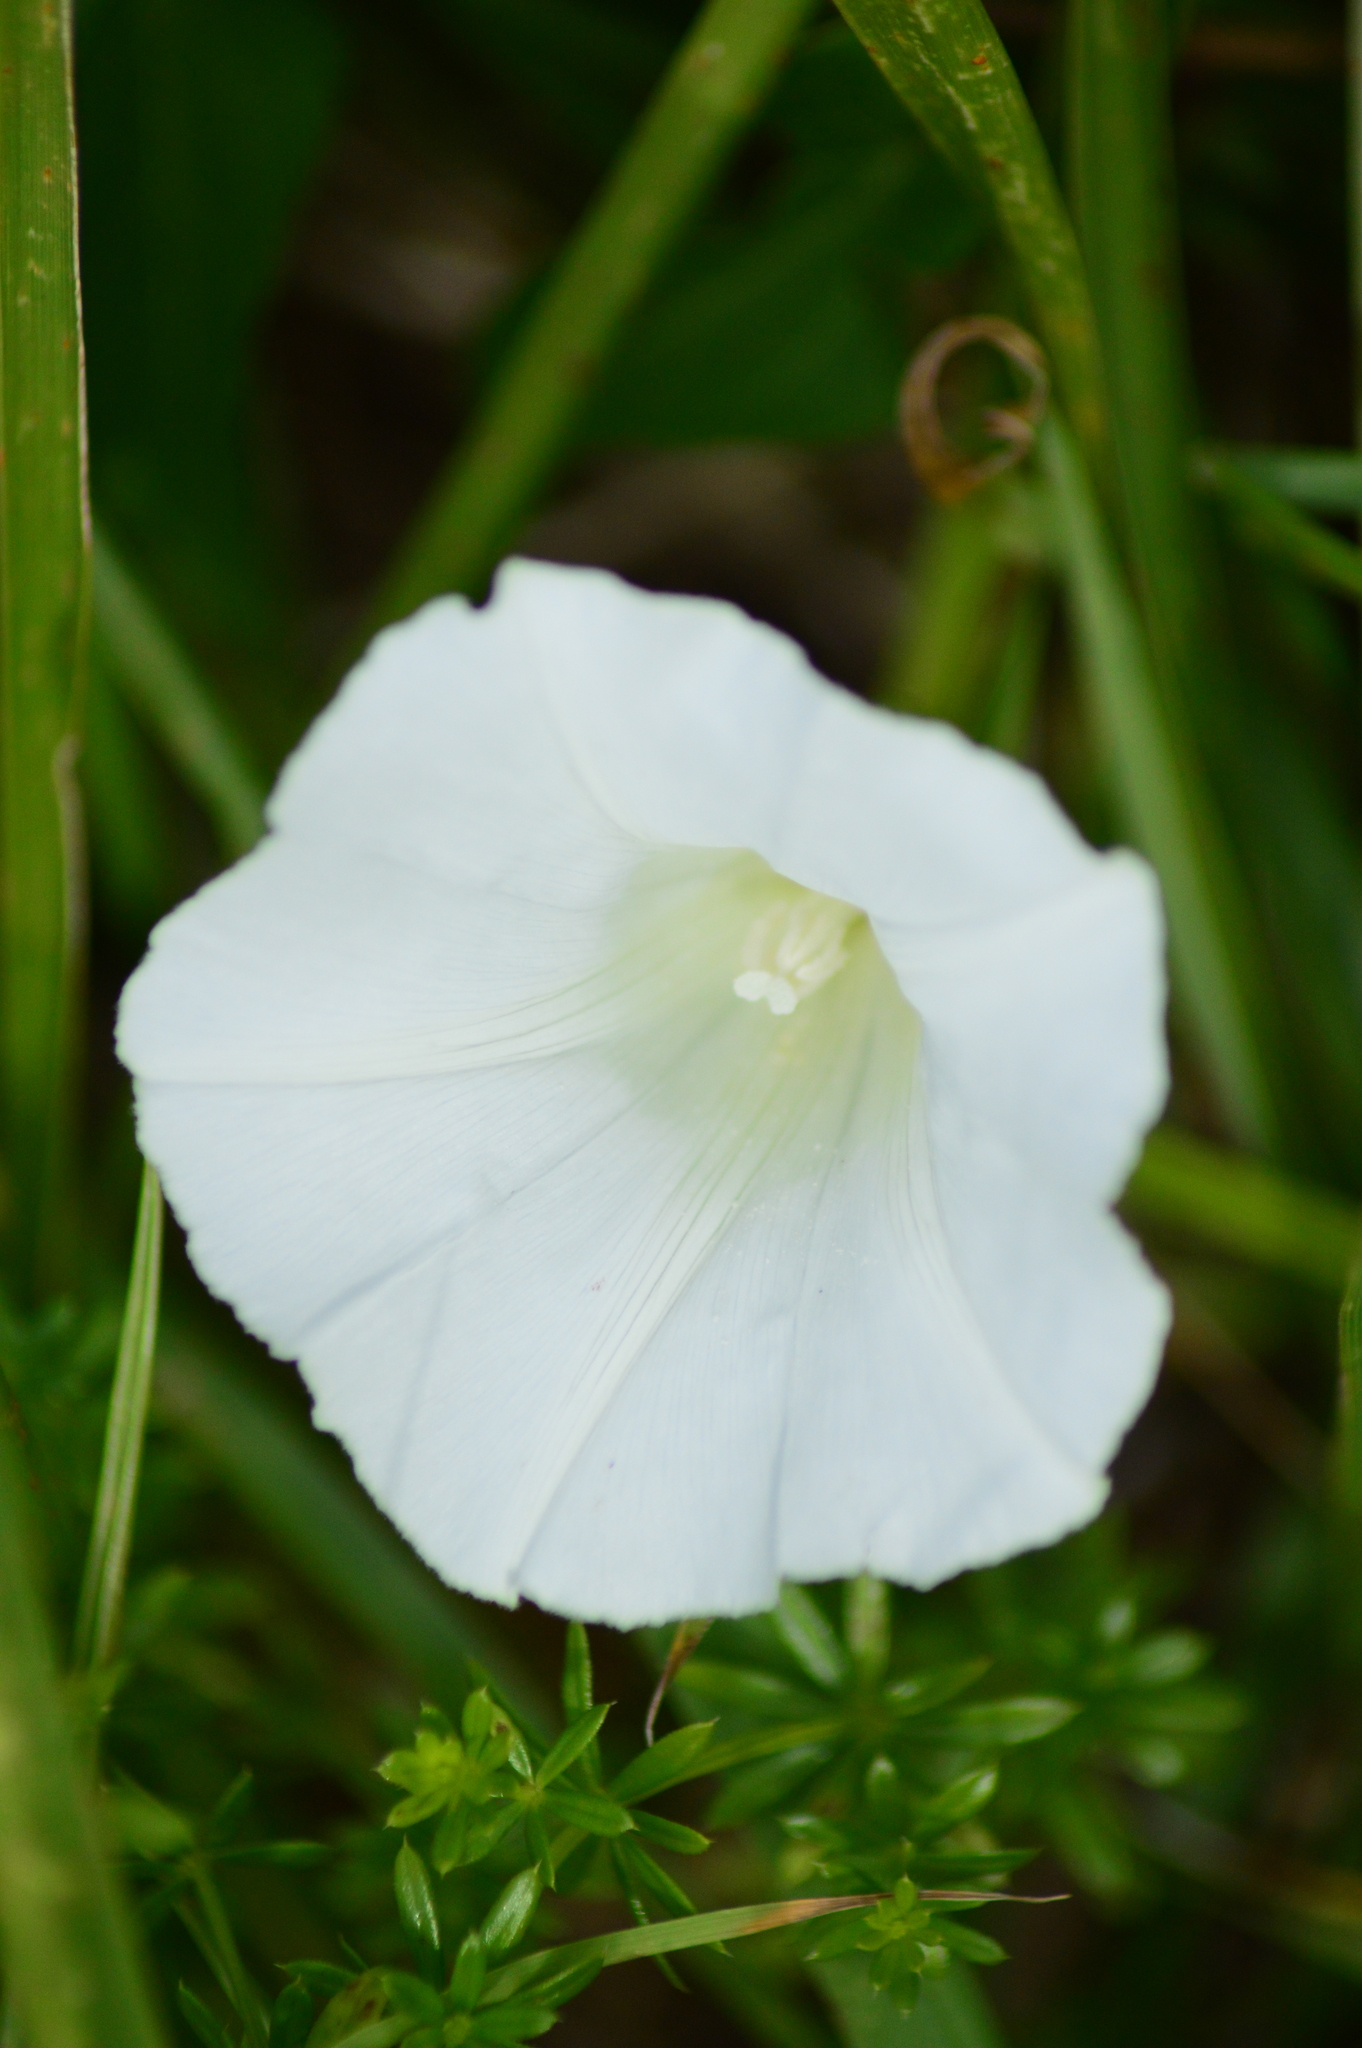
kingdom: Plantae
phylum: Tracheophyta
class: Magnoliopsida
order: Solanales
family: Convolvulaceae
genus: Calystegia
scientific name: Calystegia
